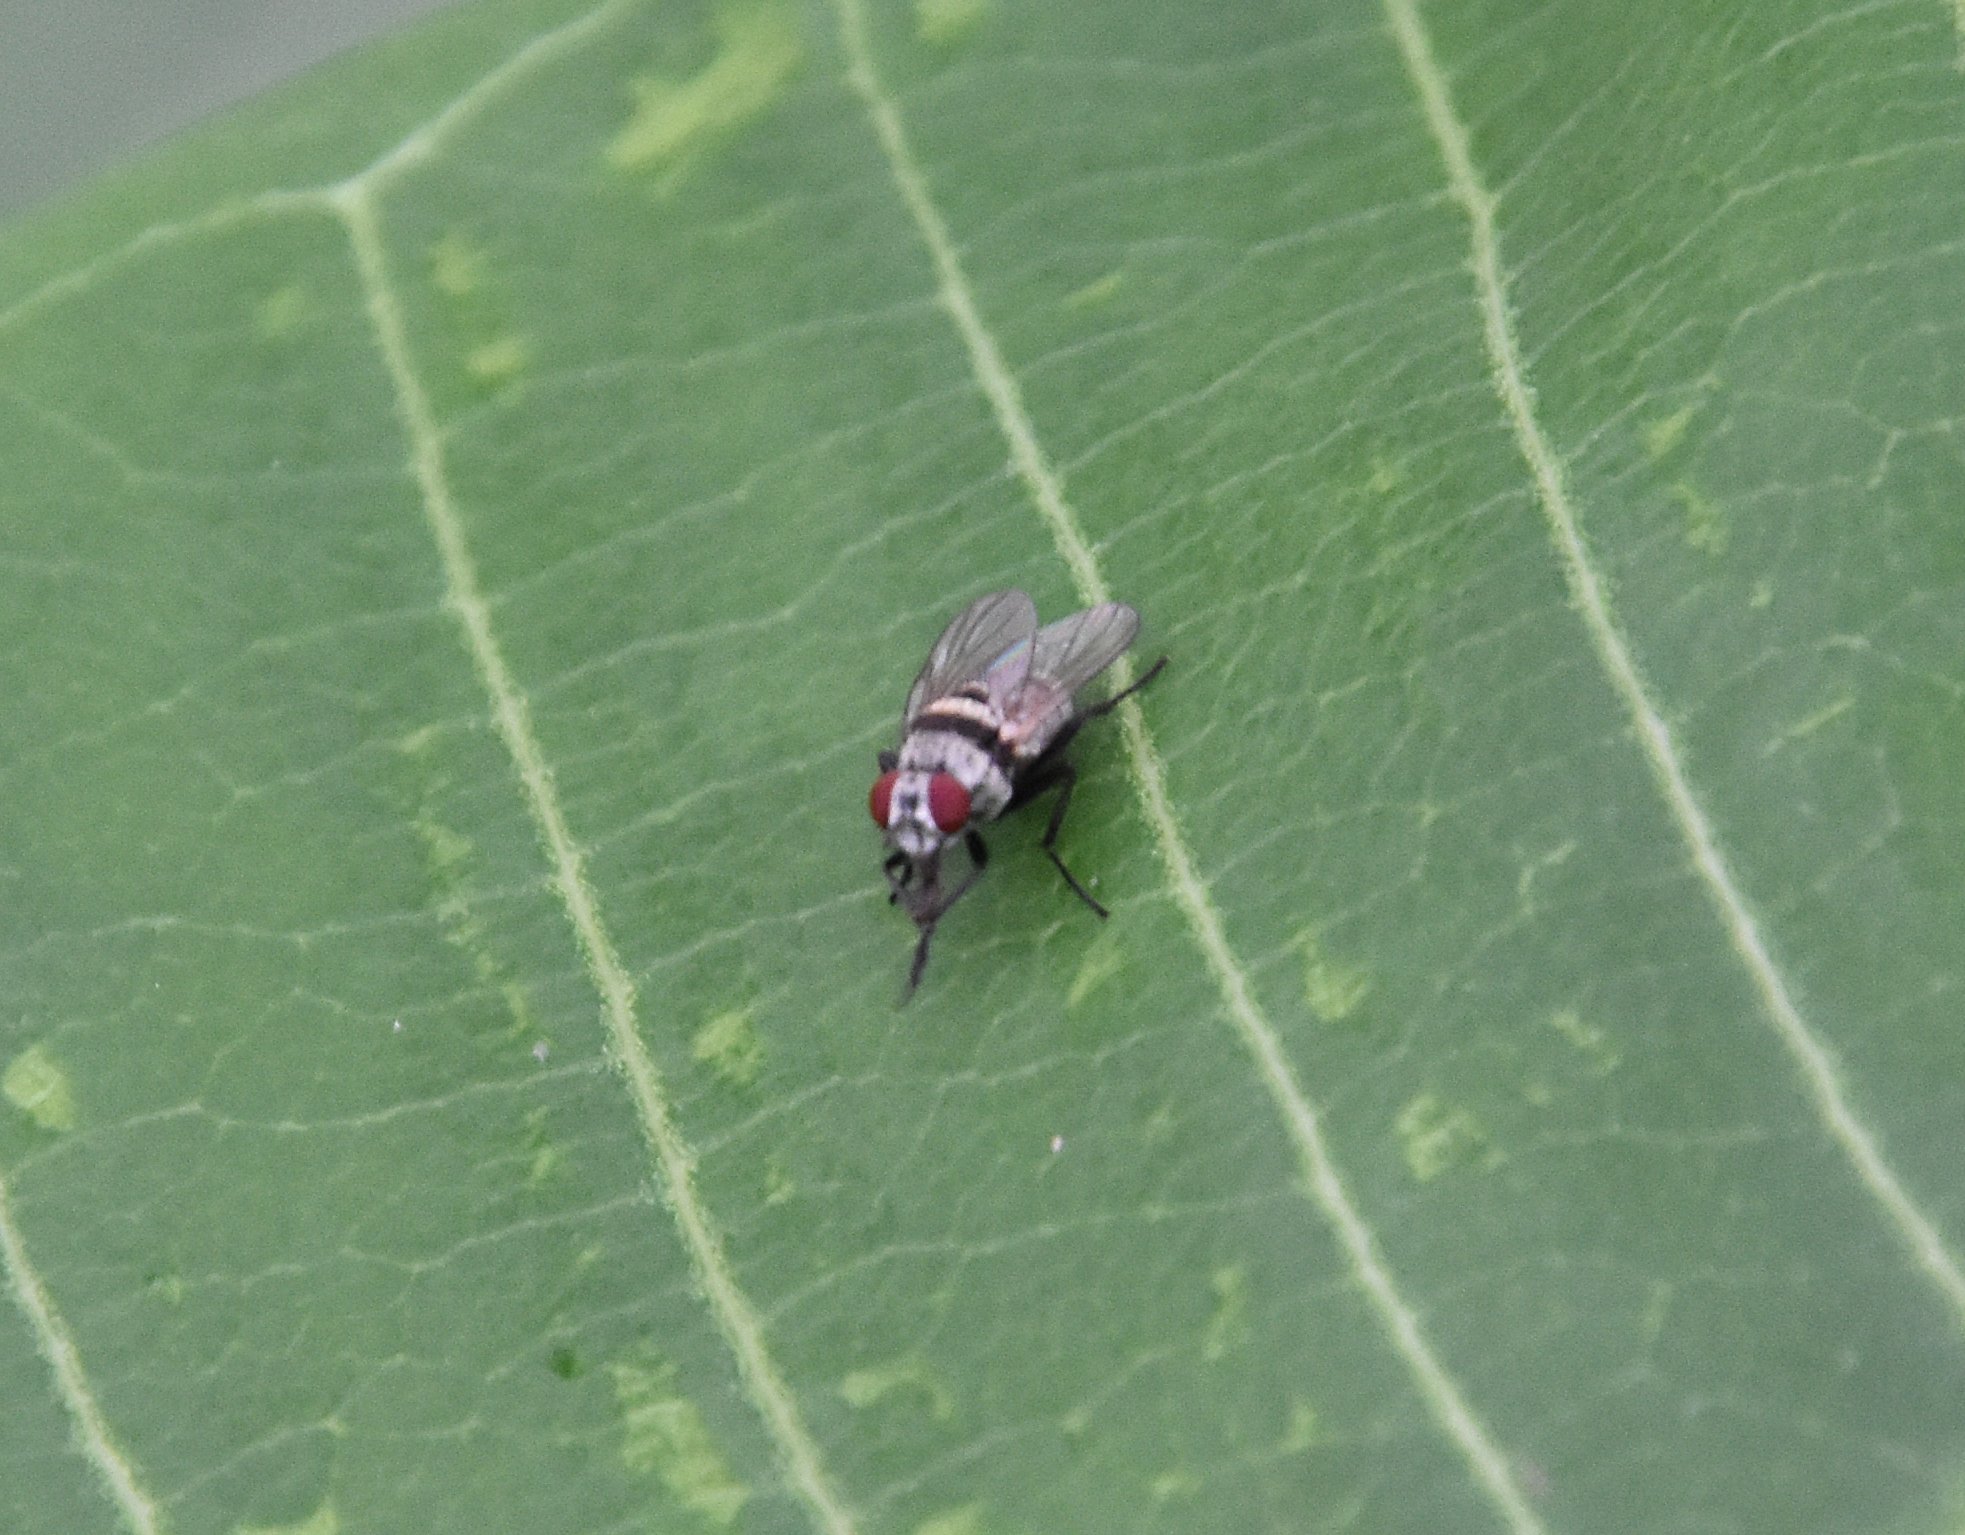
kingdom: Animalia
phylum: Arthropoda
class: Insecta
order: Diptera
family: Anthomyiidae
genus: Anthomyia
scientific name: Anthomyia illocata
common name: Fly
